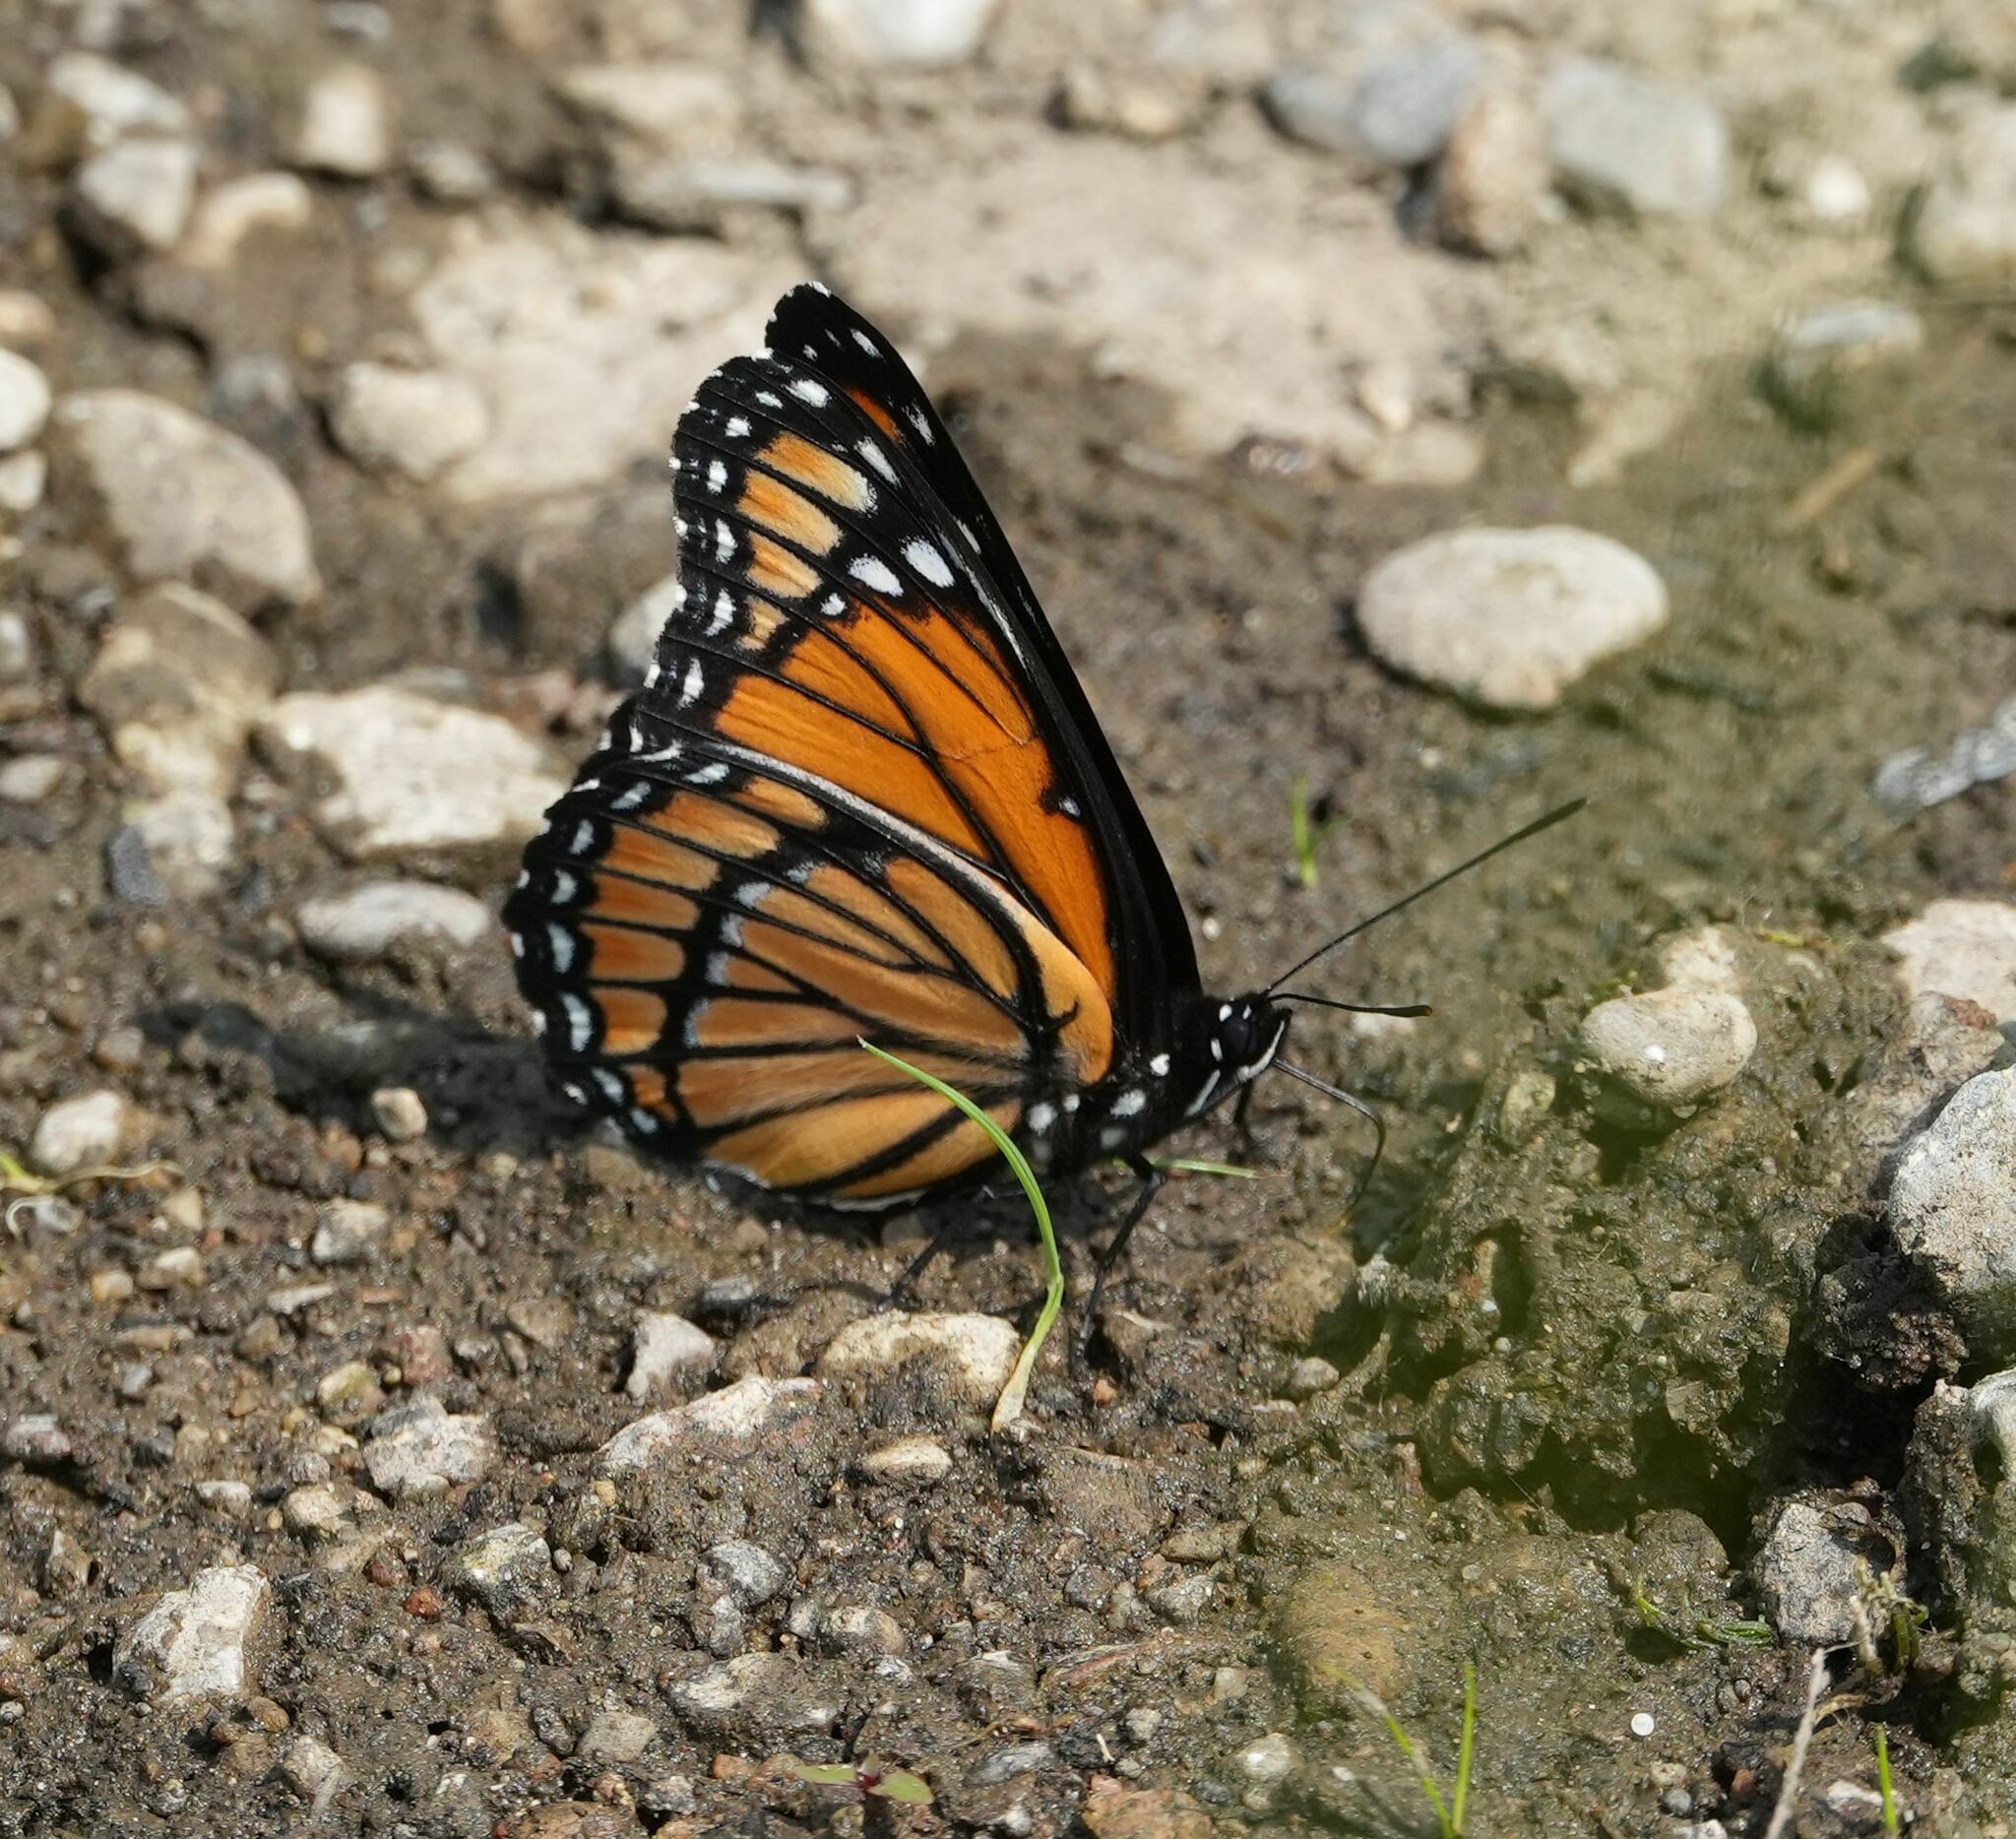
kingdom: Animalia
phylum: Arthropoda
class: Insecta
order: Lepidoptera
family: Nymphalidae
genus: Limenitis
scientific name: Limenitis archippus
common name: Viceroy
